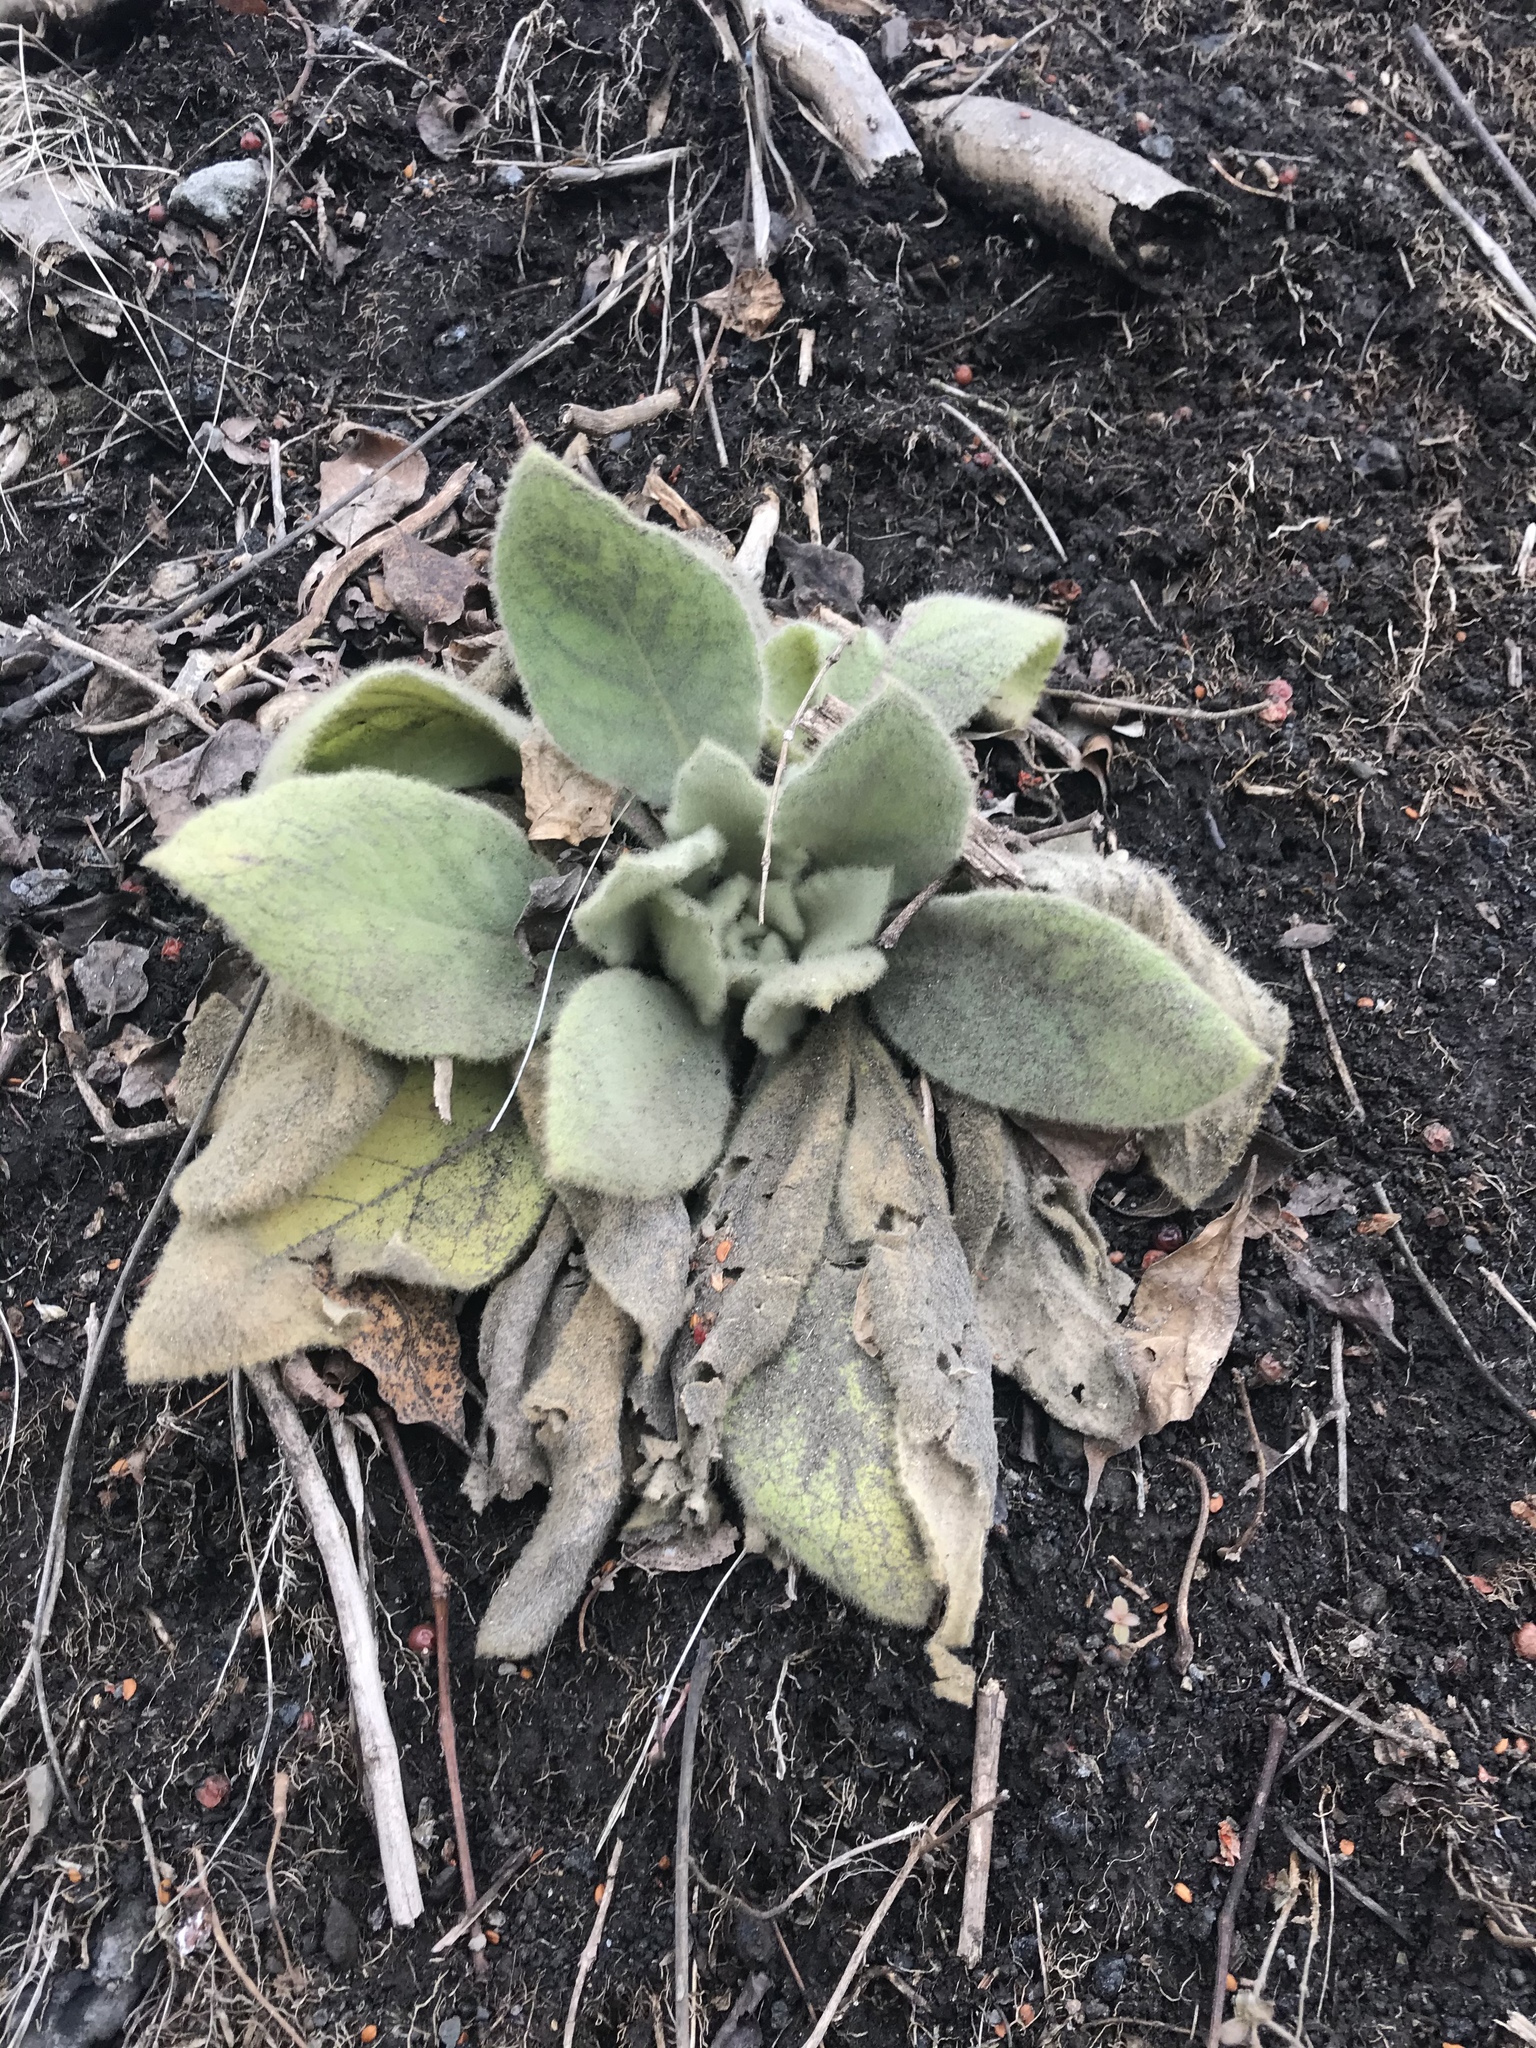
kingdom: Plantae
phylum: Tracheophyta
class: Magnoliopsida
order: Lamiales
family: Scrophulariaceae
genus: Verbascum
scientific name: Verbascum thapsus
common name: Common mullein
